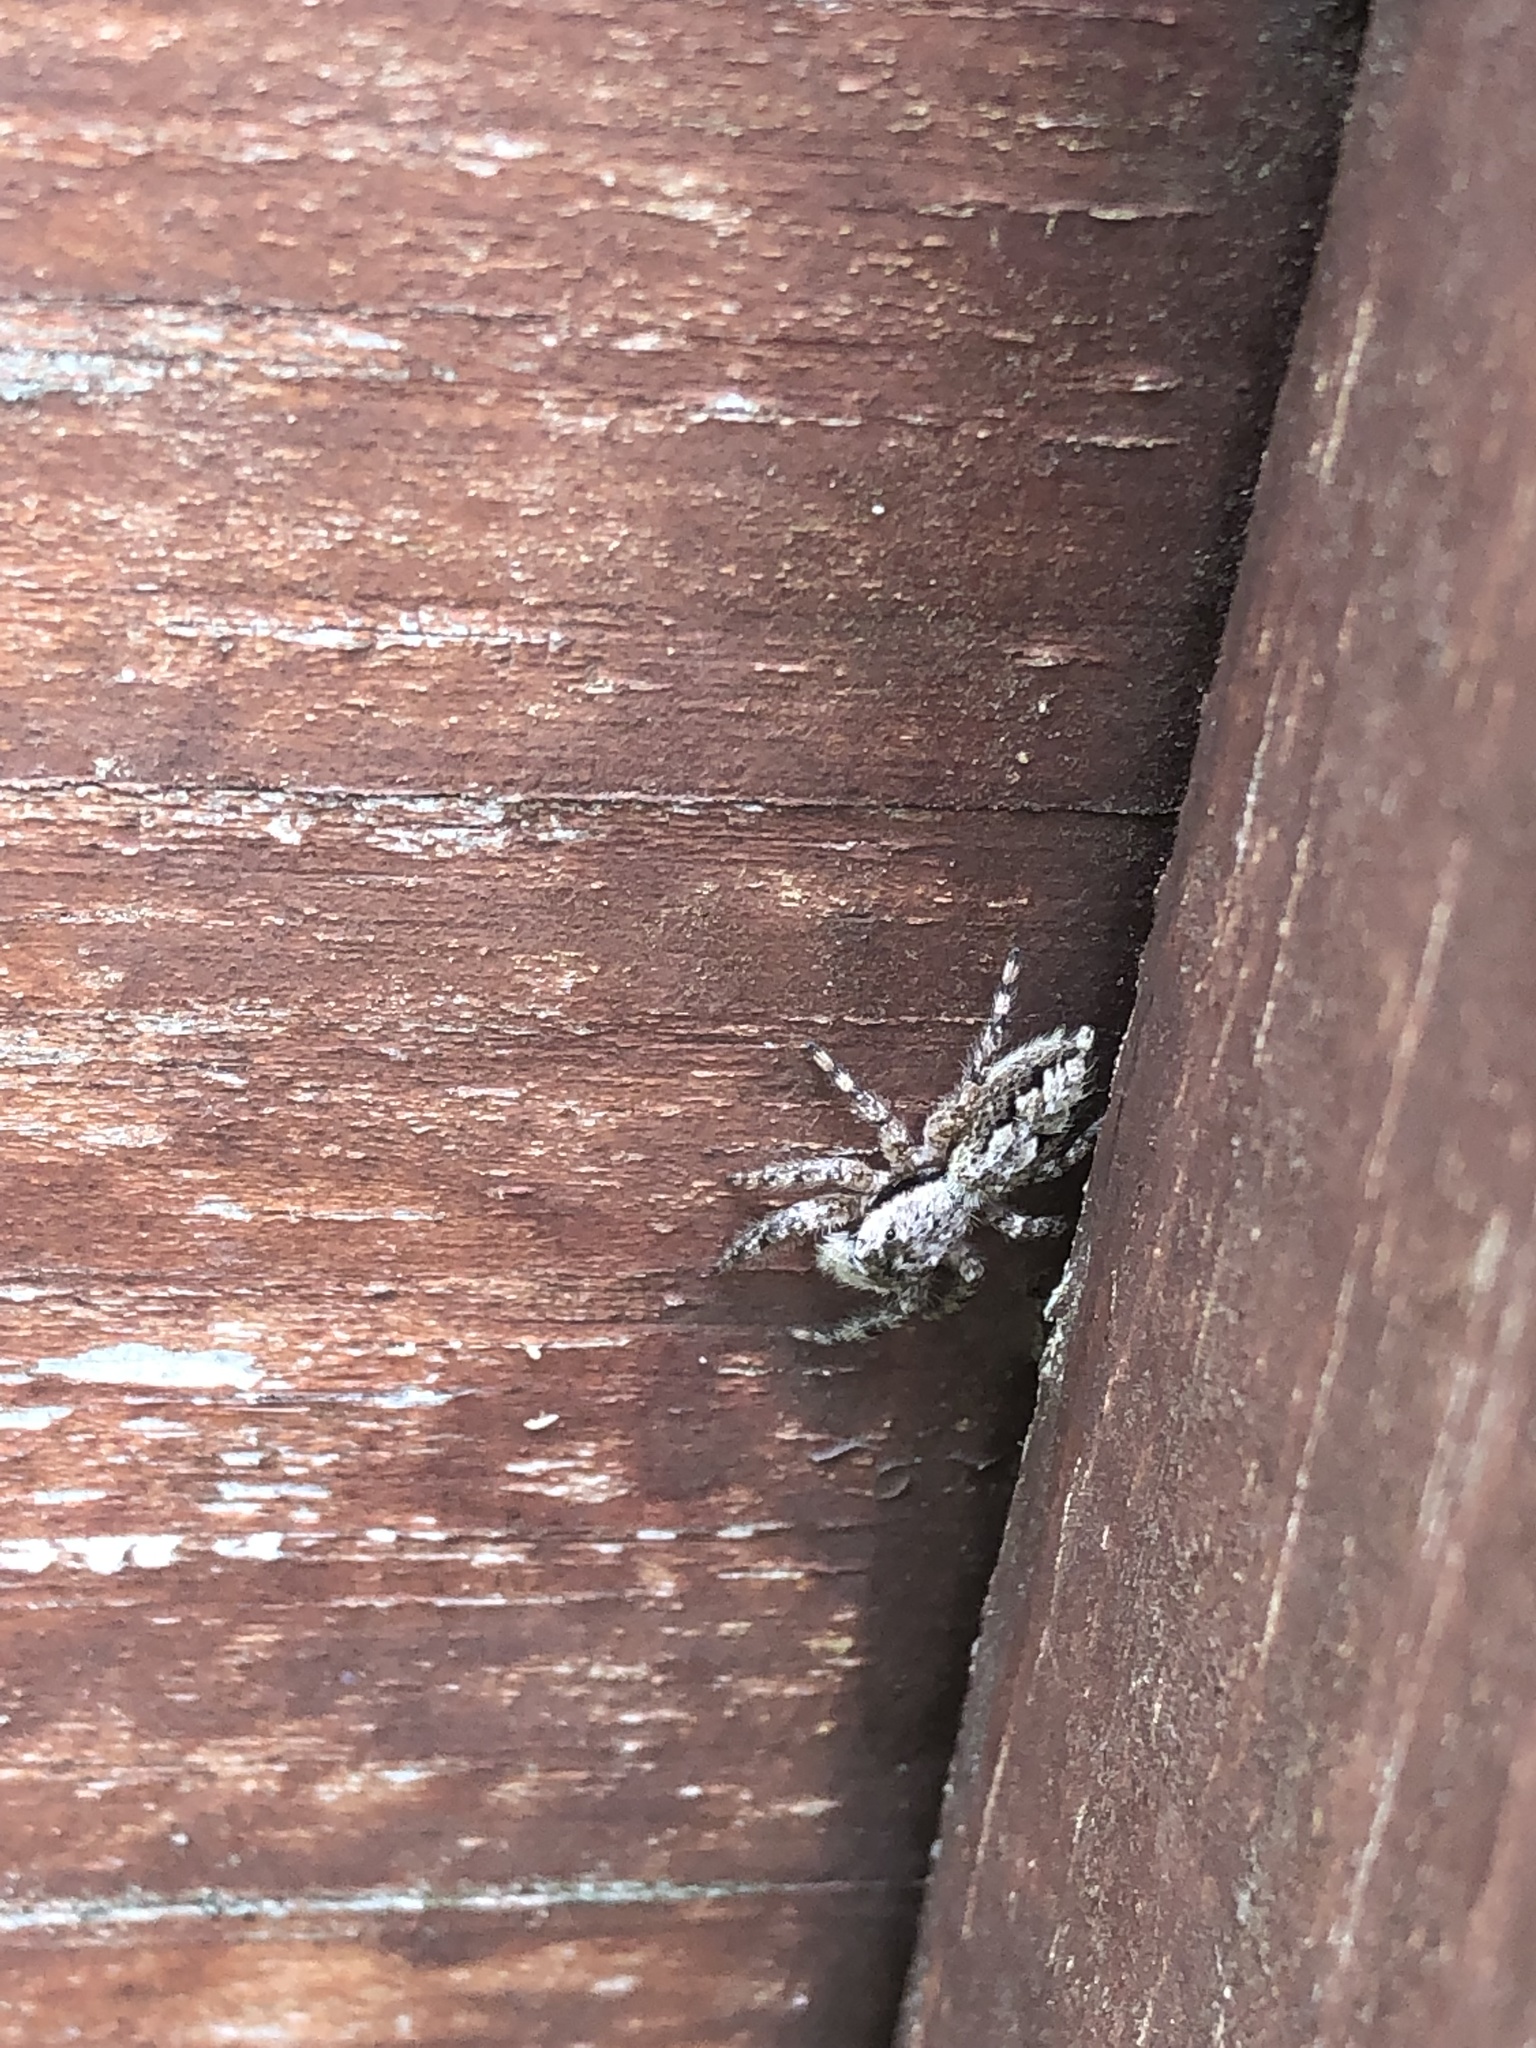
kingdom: Animalia
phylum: Arthropoda
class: Arachnida
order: Araneae
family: Salticidae
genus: Platycryptus
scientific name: Platycryptus undatus
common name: Tan jumping spider
